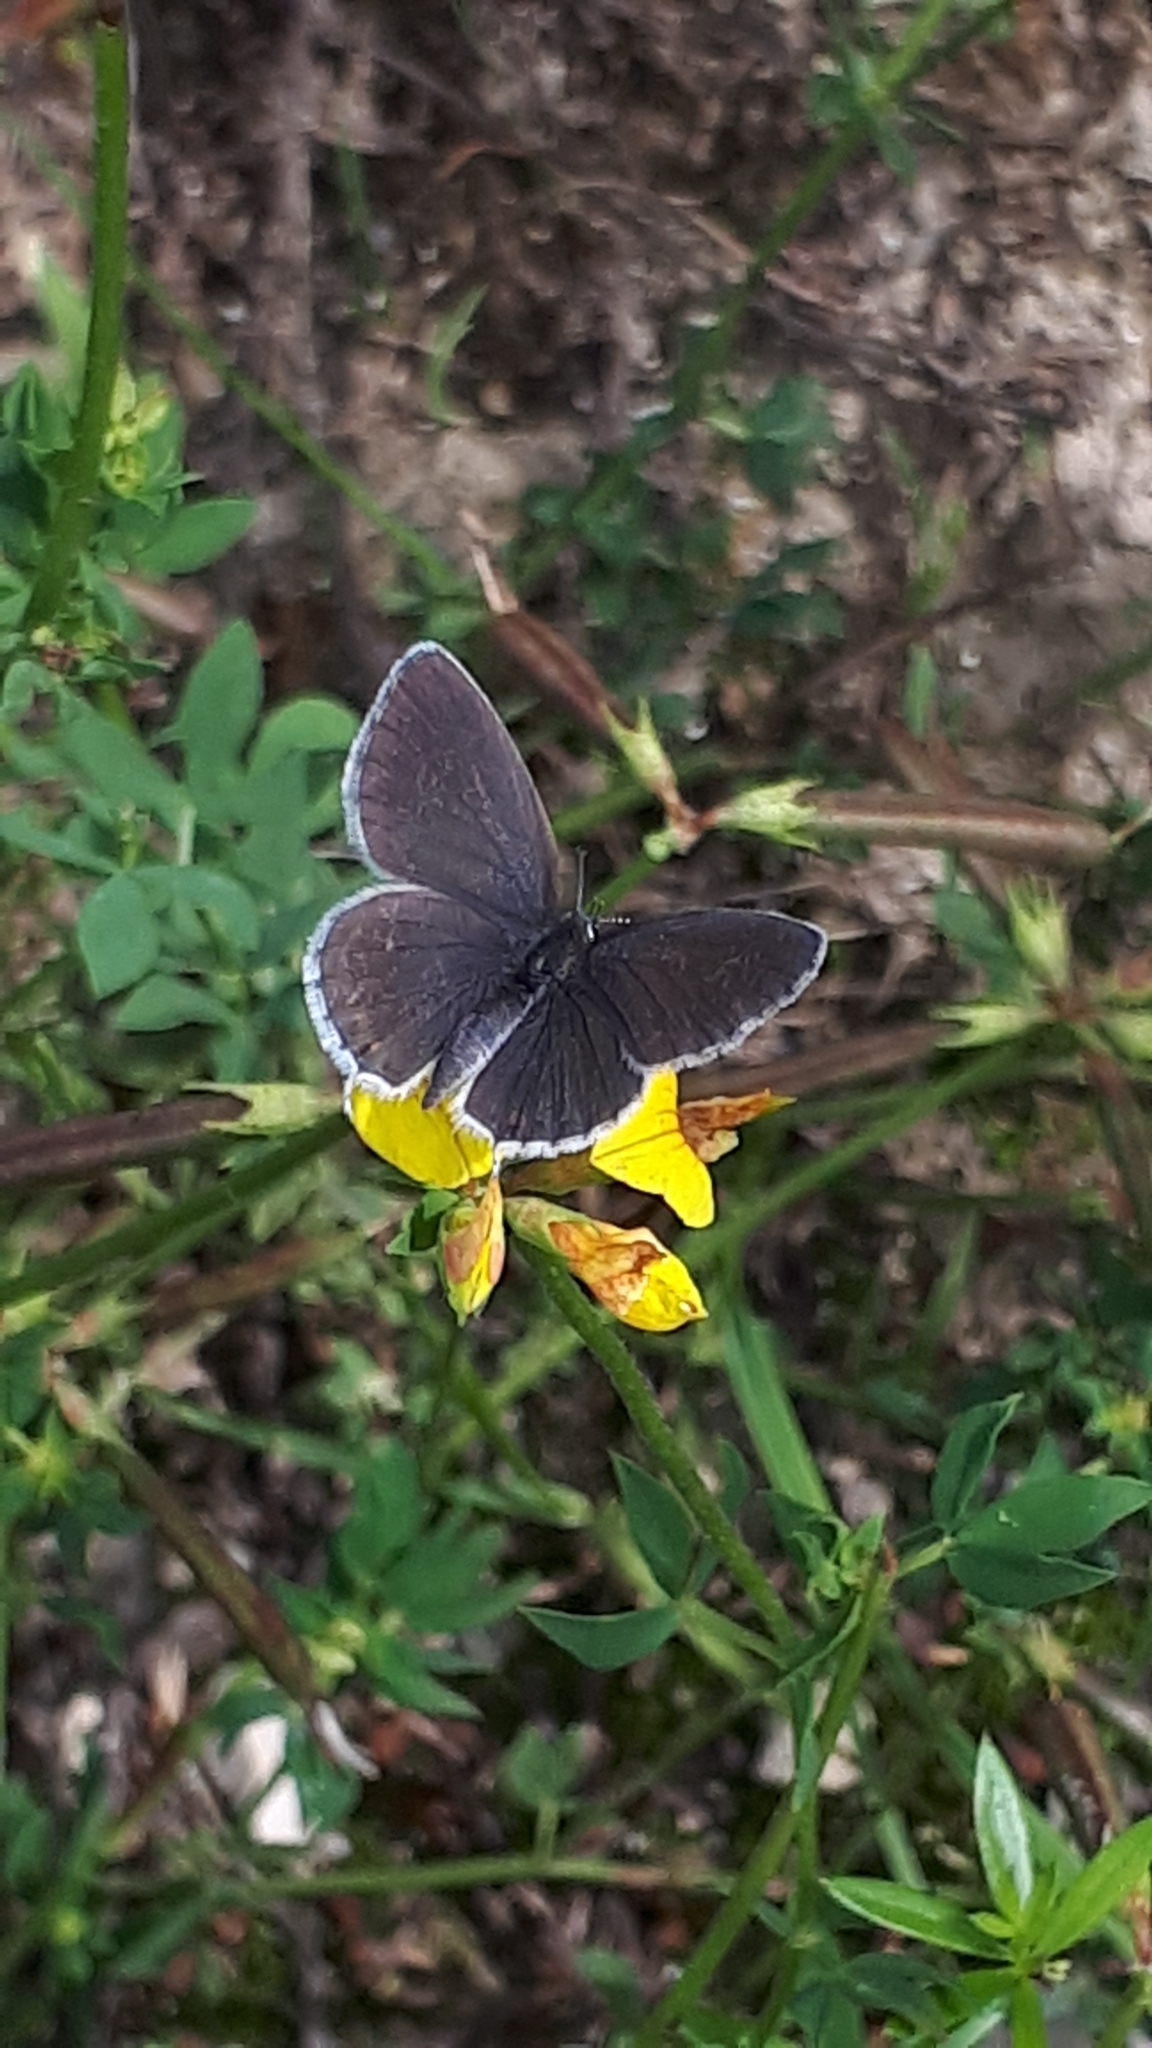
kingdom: Animalia
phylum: Arthropoda
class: Insecta
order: Lepidoptera
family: Lycaenidae
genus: Elkalyce
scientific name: Elkalyce argiades
